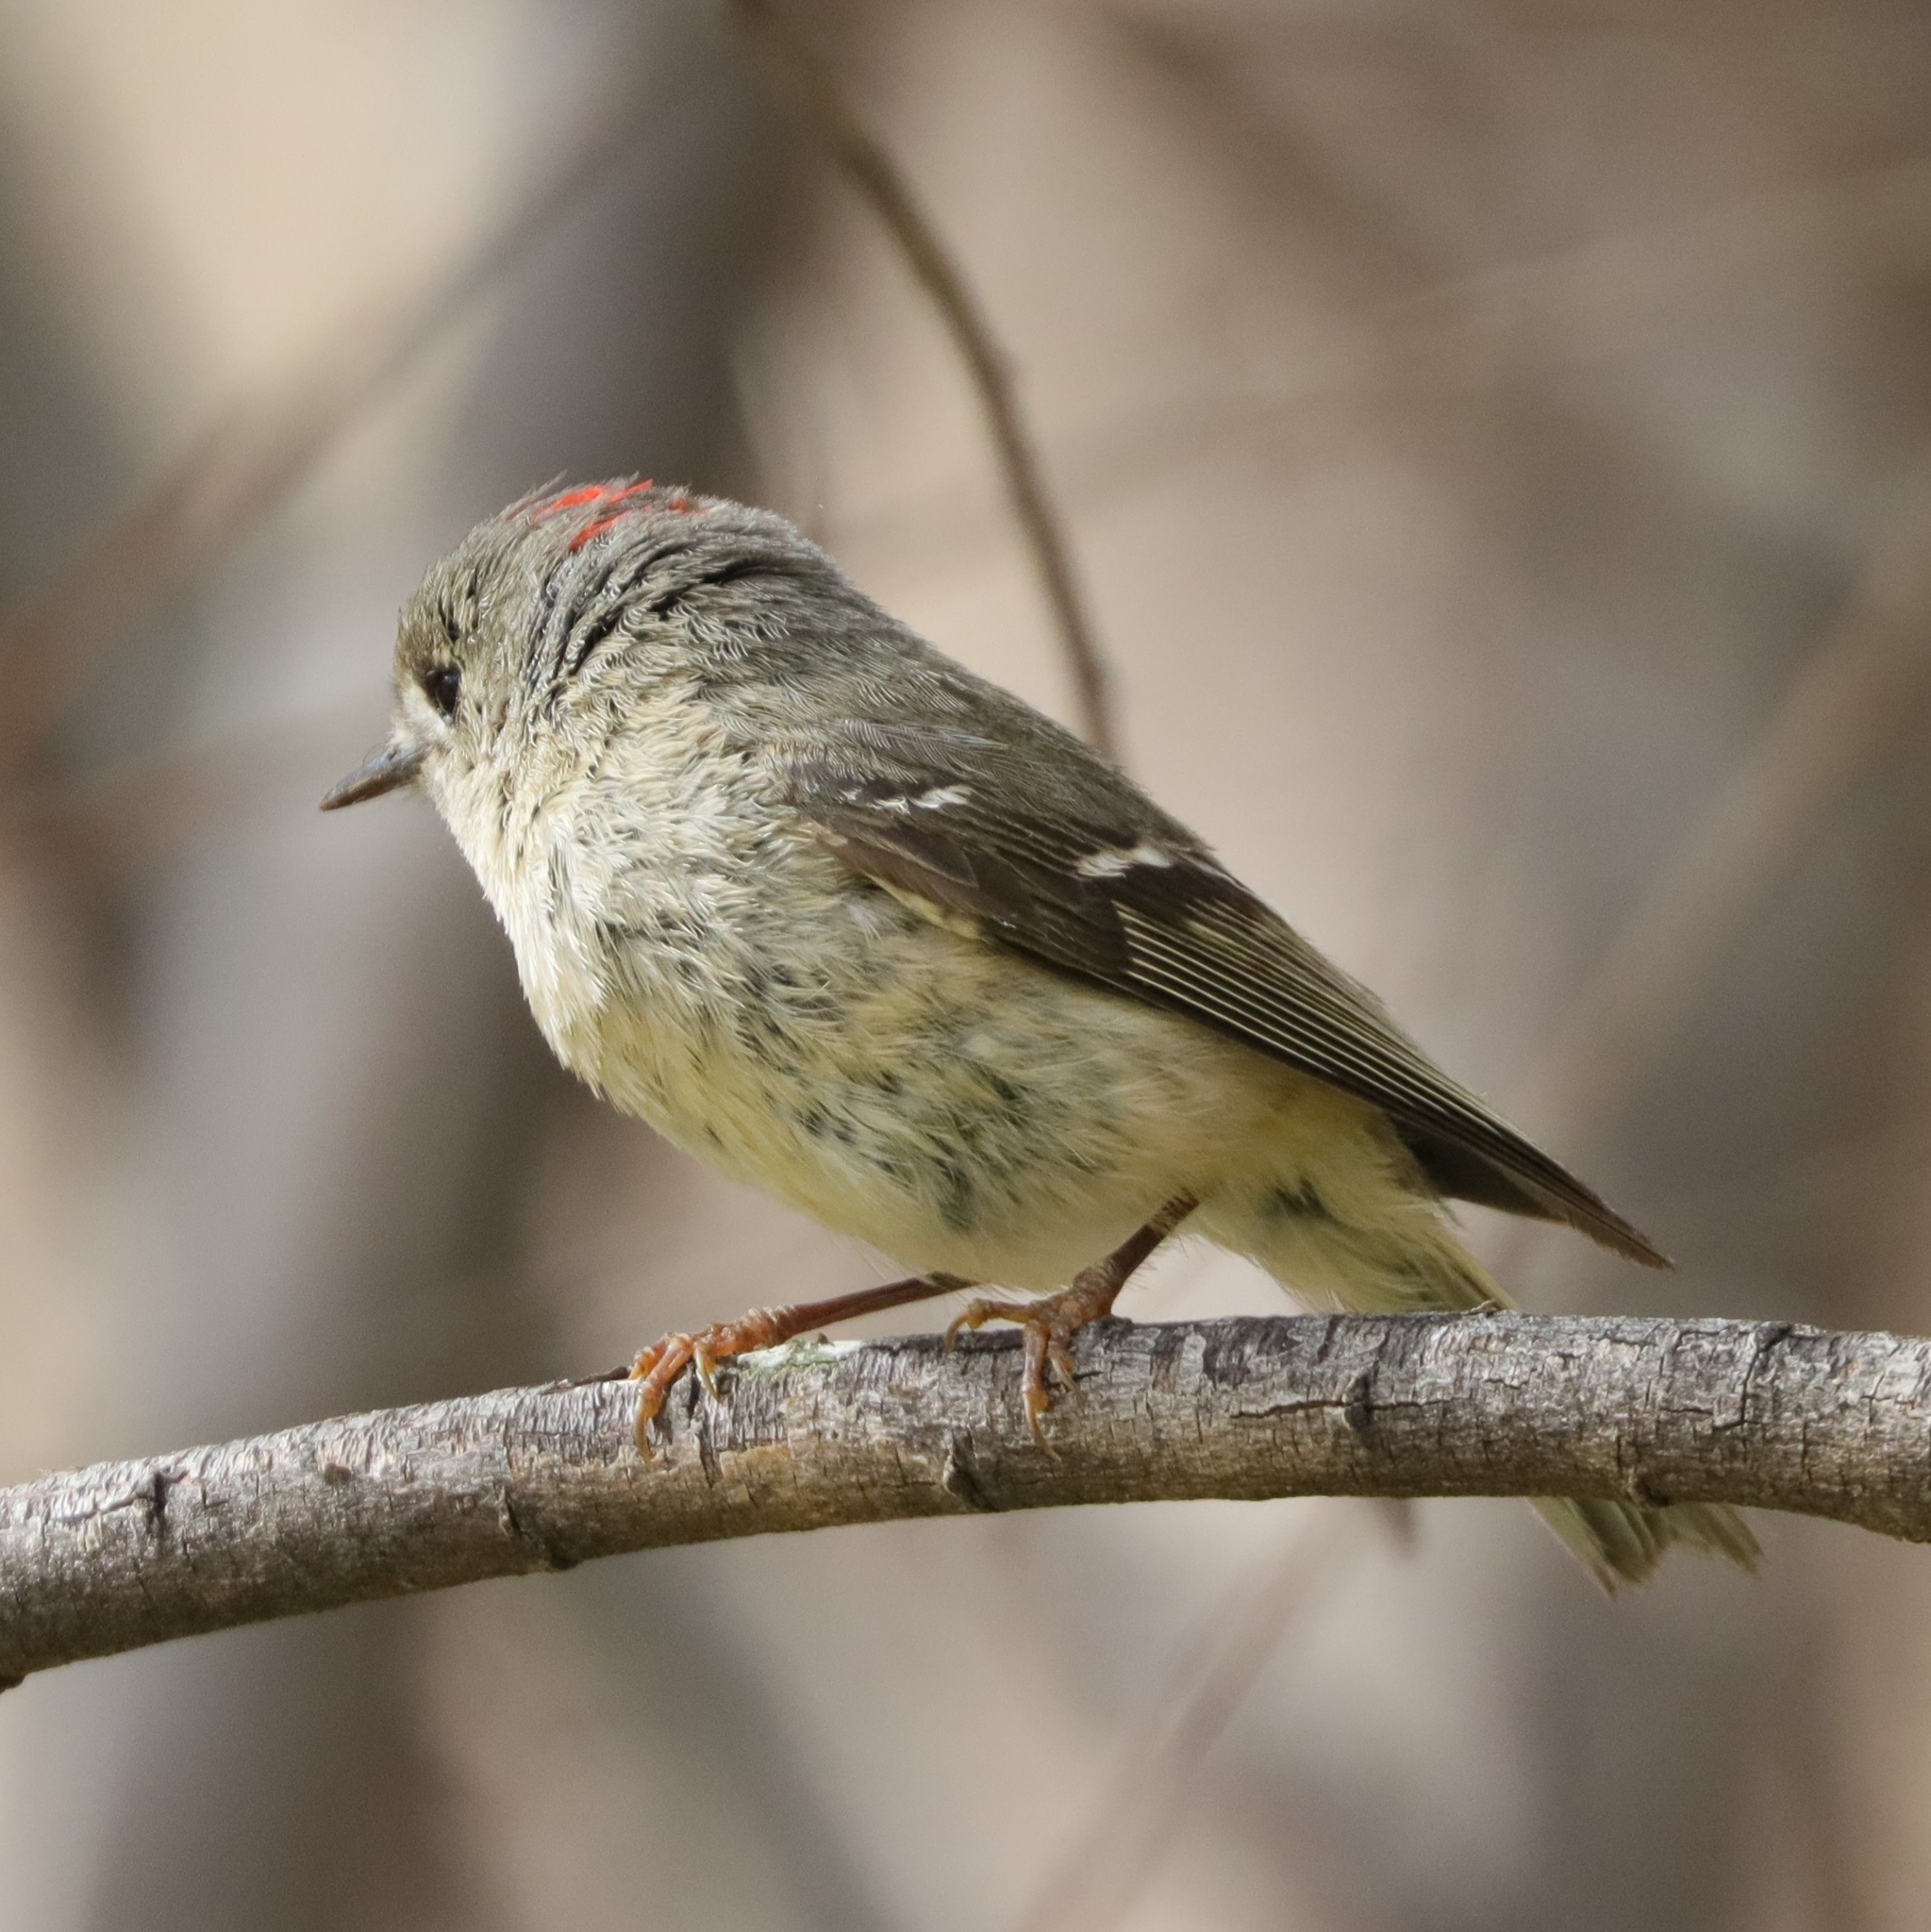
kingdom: Animalia
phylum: Chordata
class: Aves
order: Passeriformes
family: Regulidae
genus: Regulus
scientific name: Regulus calendula
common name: Ruby-crowned kinglet
